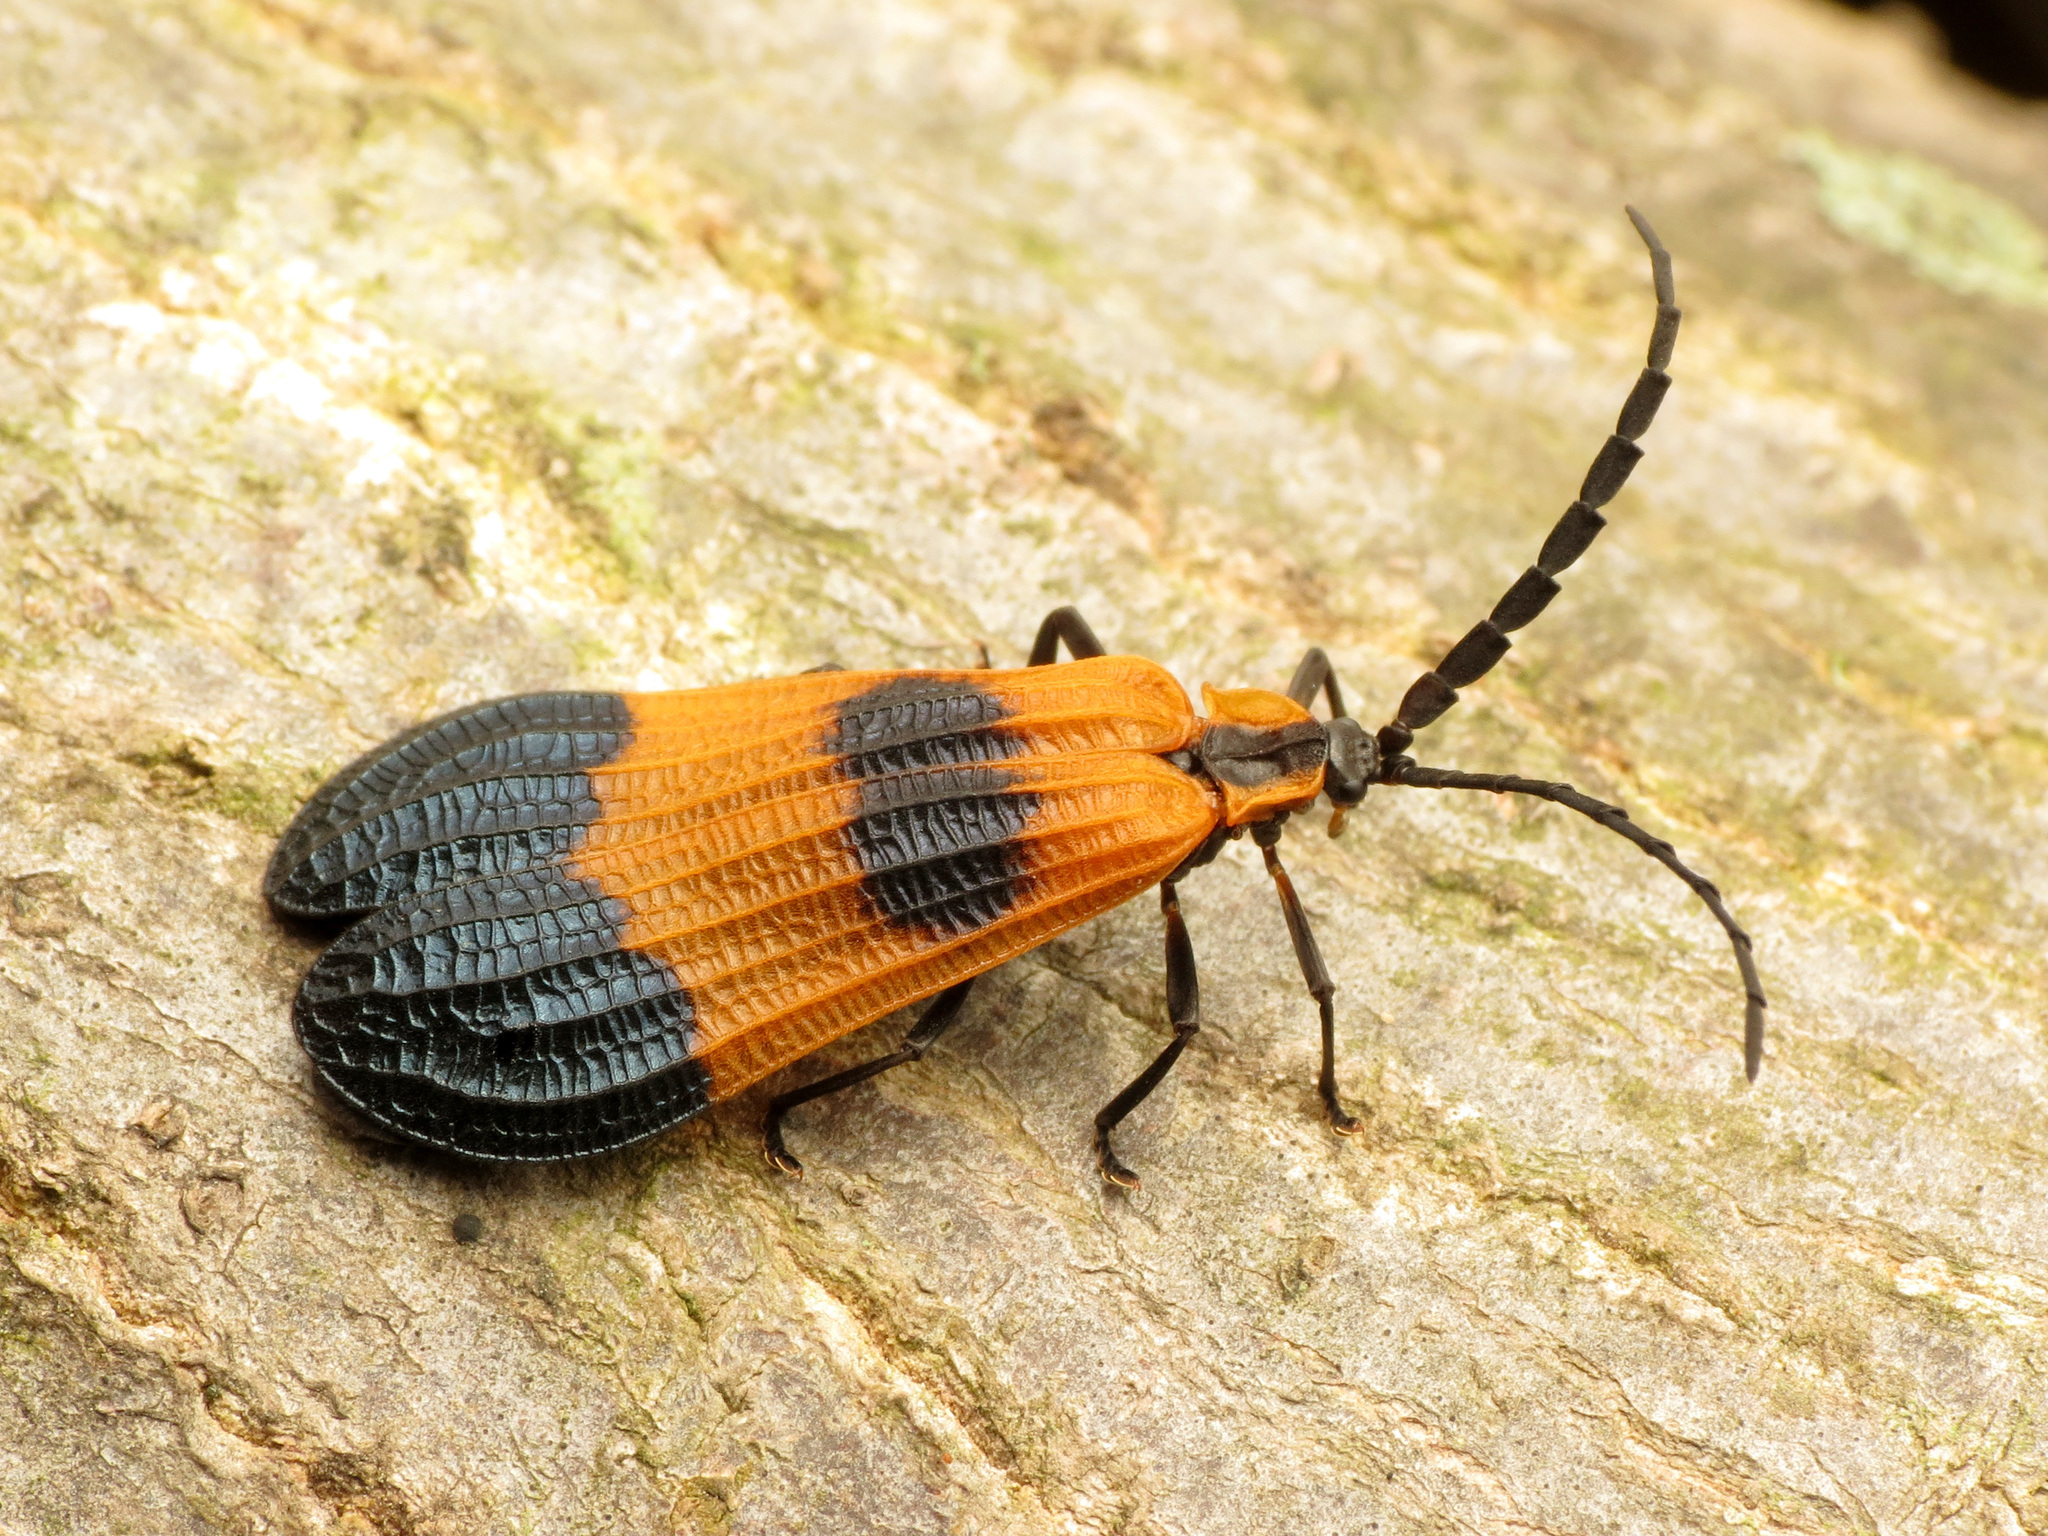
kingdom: Animalia
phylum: Arthropoda
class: Insecta
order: Coleoptera
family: Lycidae
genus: Calopteron
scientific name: Calopteron terminale
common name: End band net-winged beetle
